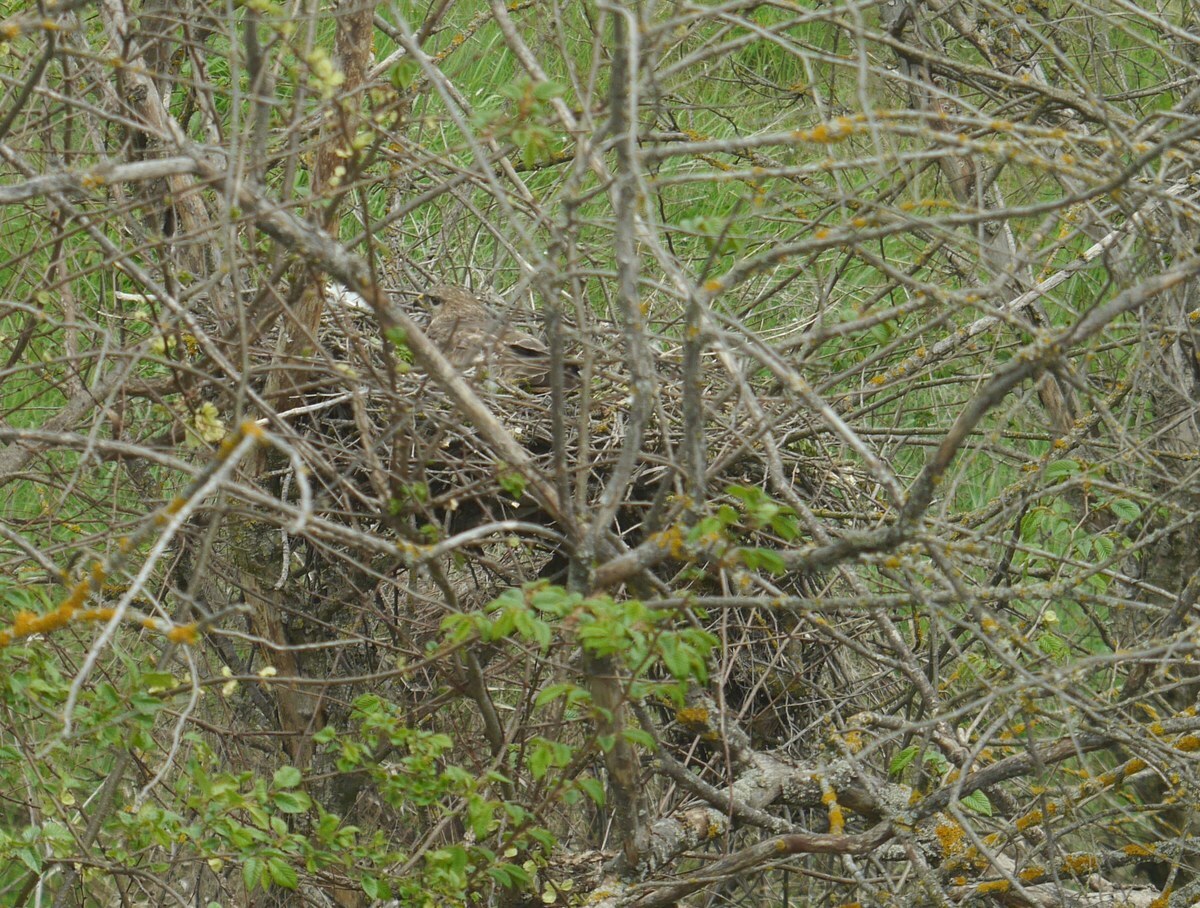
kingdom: Animalia
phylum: Chordata
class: Aves
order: Accipitriformes
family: Accipitridae
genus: Buteo
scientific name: Buteo buteo
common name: Common buzzard
